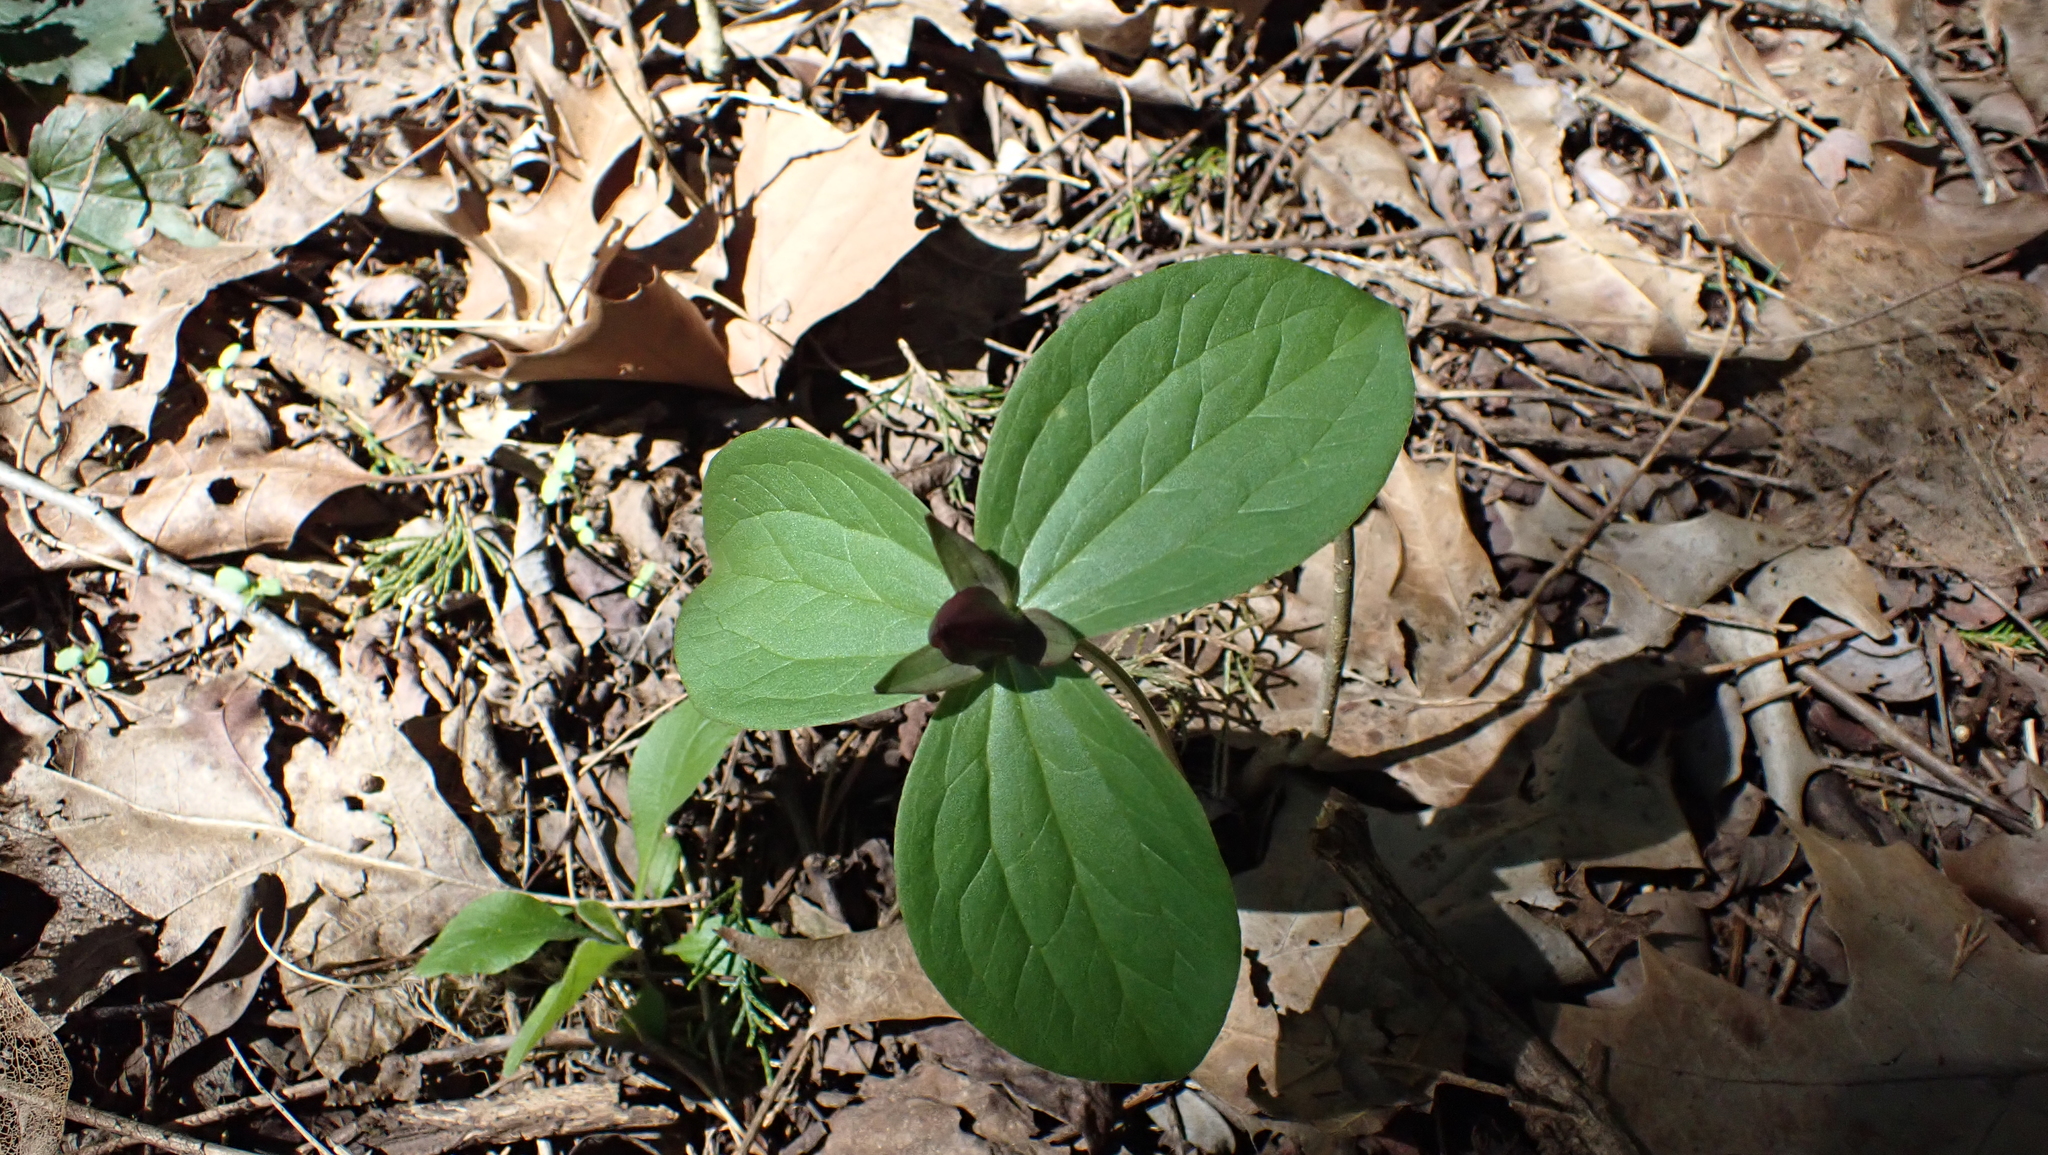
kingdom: Plantae
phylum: Tracheophyta
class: Liliopsida
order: Liliales
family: Melanthiaceae
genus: Trillium
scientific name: Trillium sessile
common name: Sessile trillium
